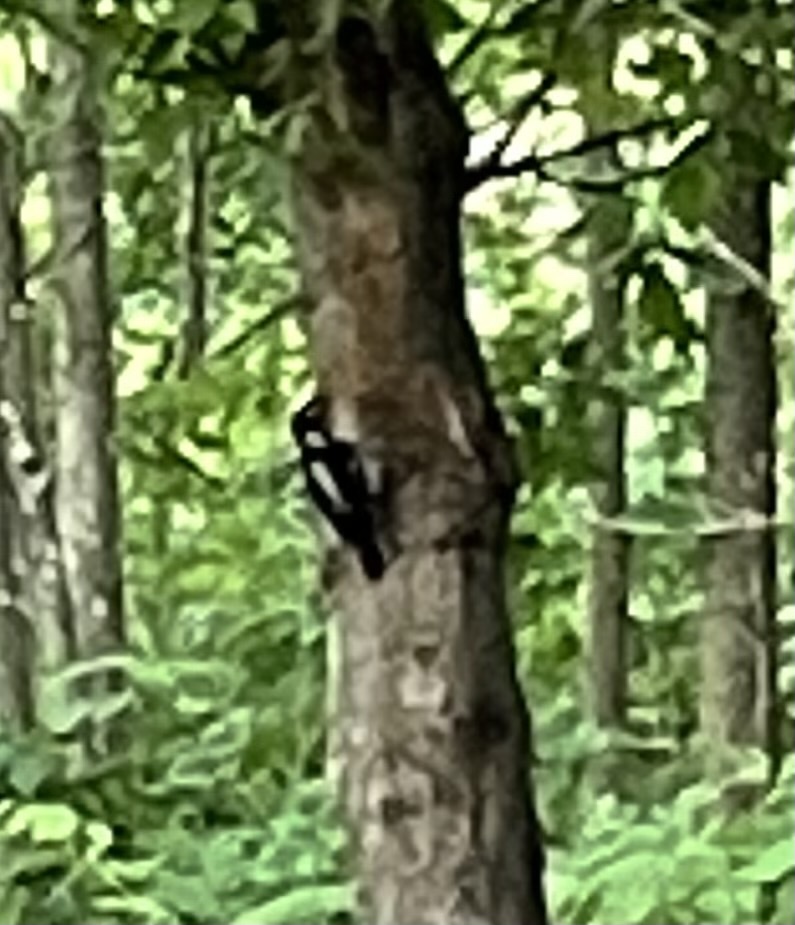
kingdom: Animalia
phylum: Chordata
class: Aves
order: Piciformes
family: Picidae
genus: Dryobates
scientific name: Dryobates pubescens
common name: Downy woodpecker
